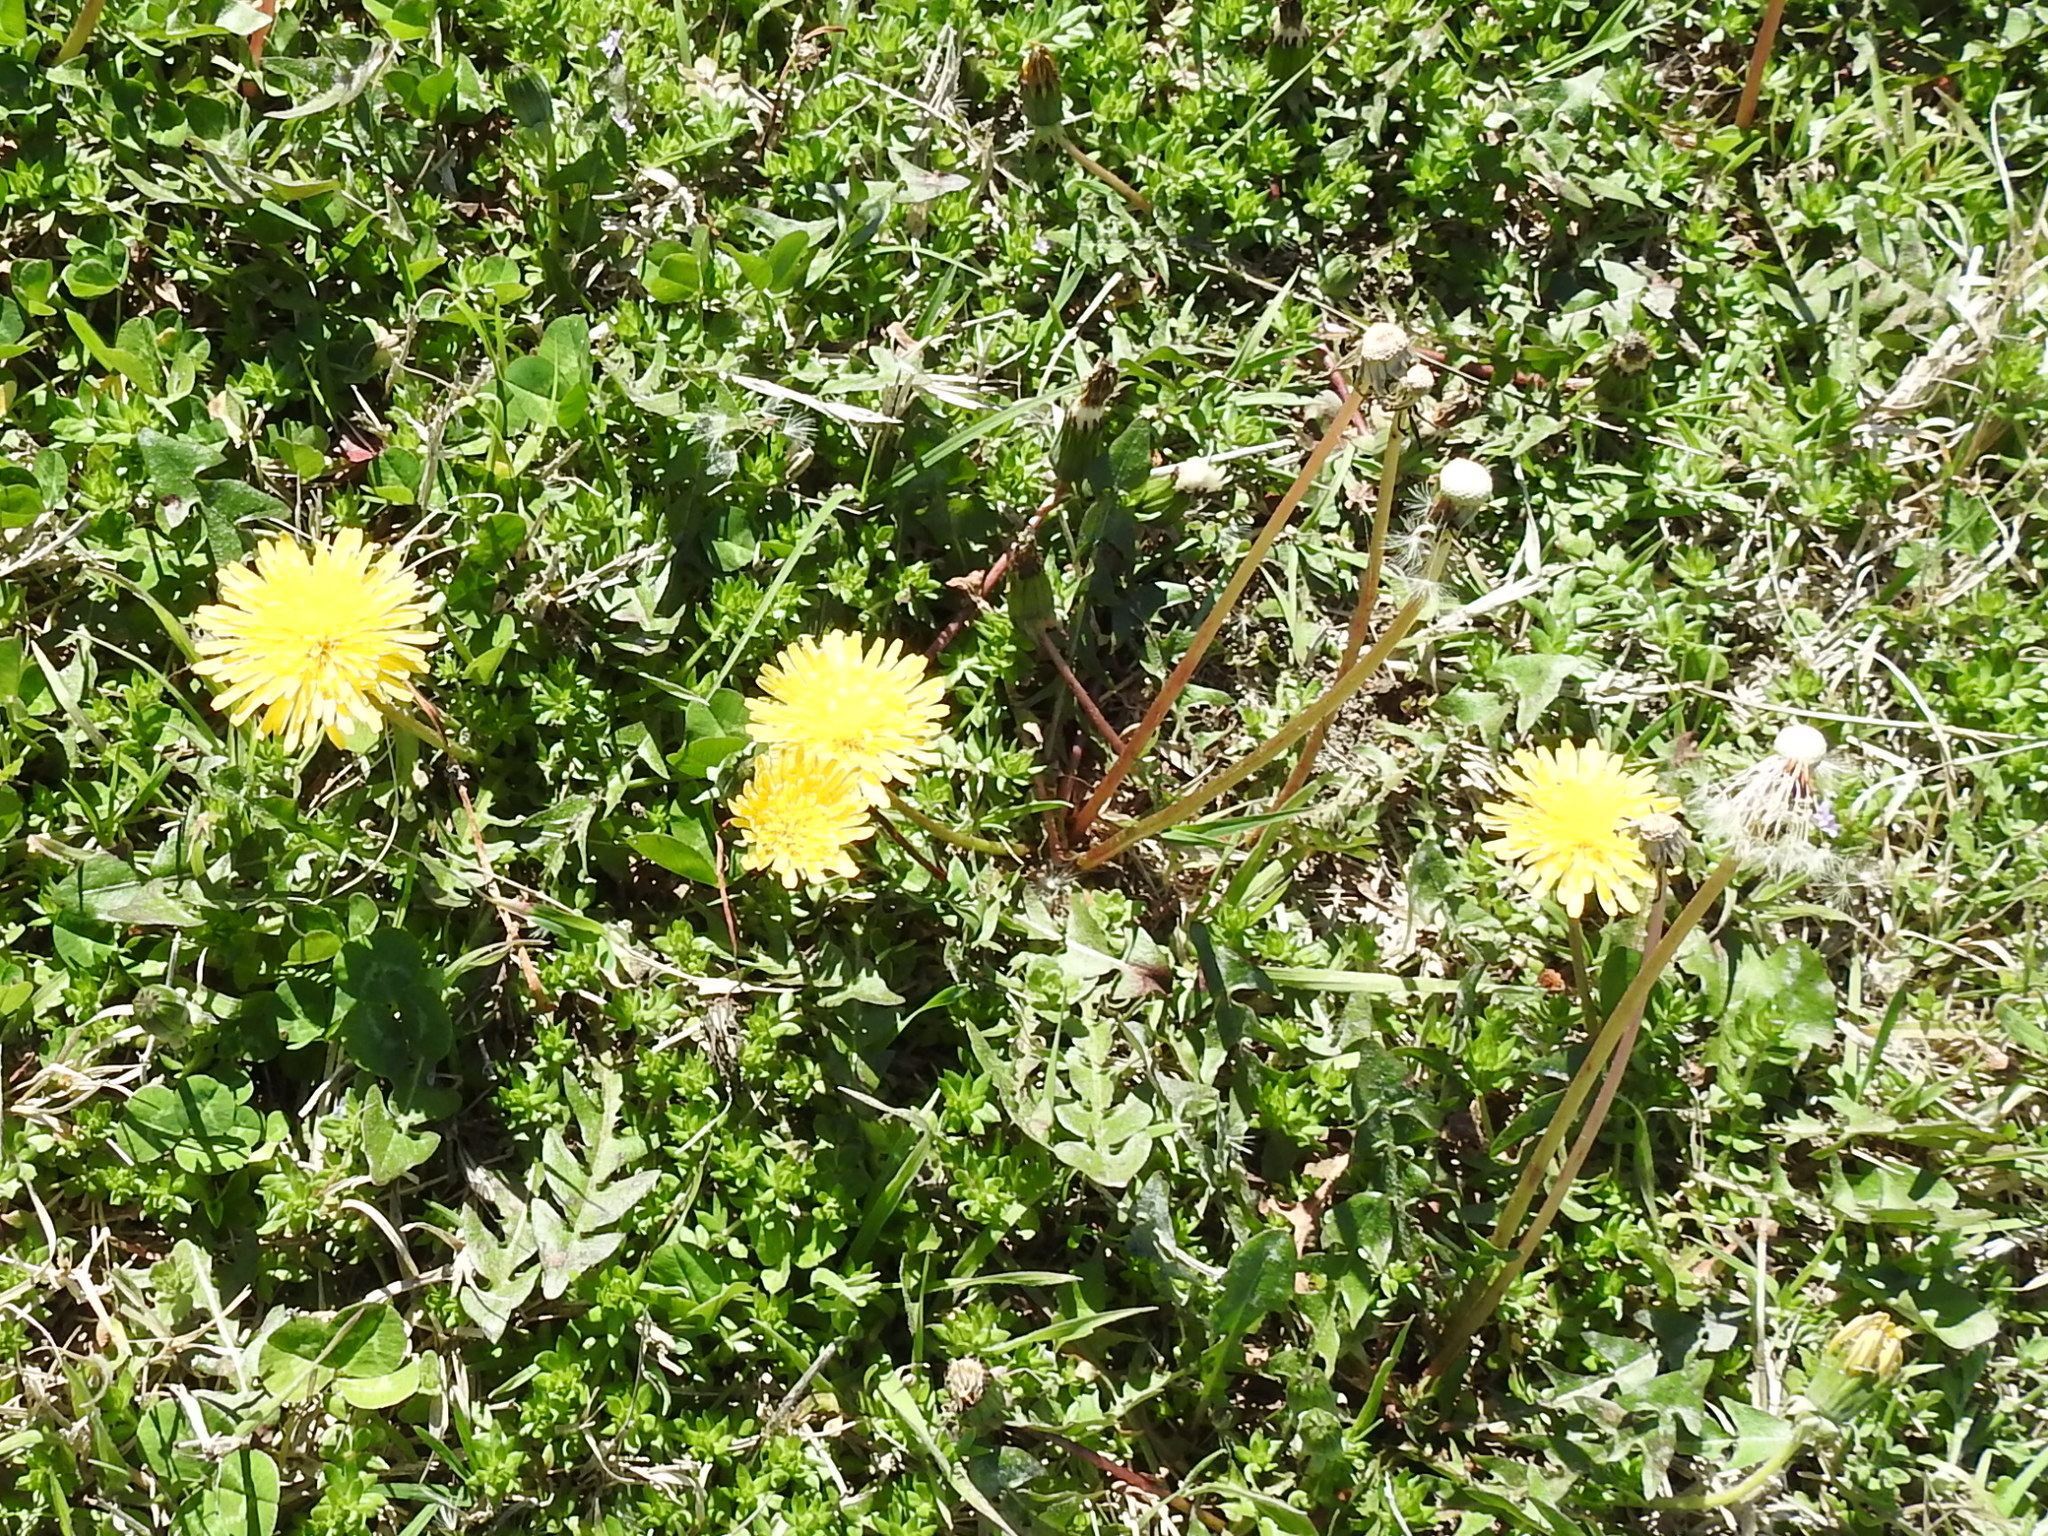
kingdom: Plantae
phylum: Tracheophyta
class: Magnoliopsida
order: Asterales
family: Asteraceae
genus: Taraxacum
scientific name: Taraxacum officinale
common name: Common dandelion
